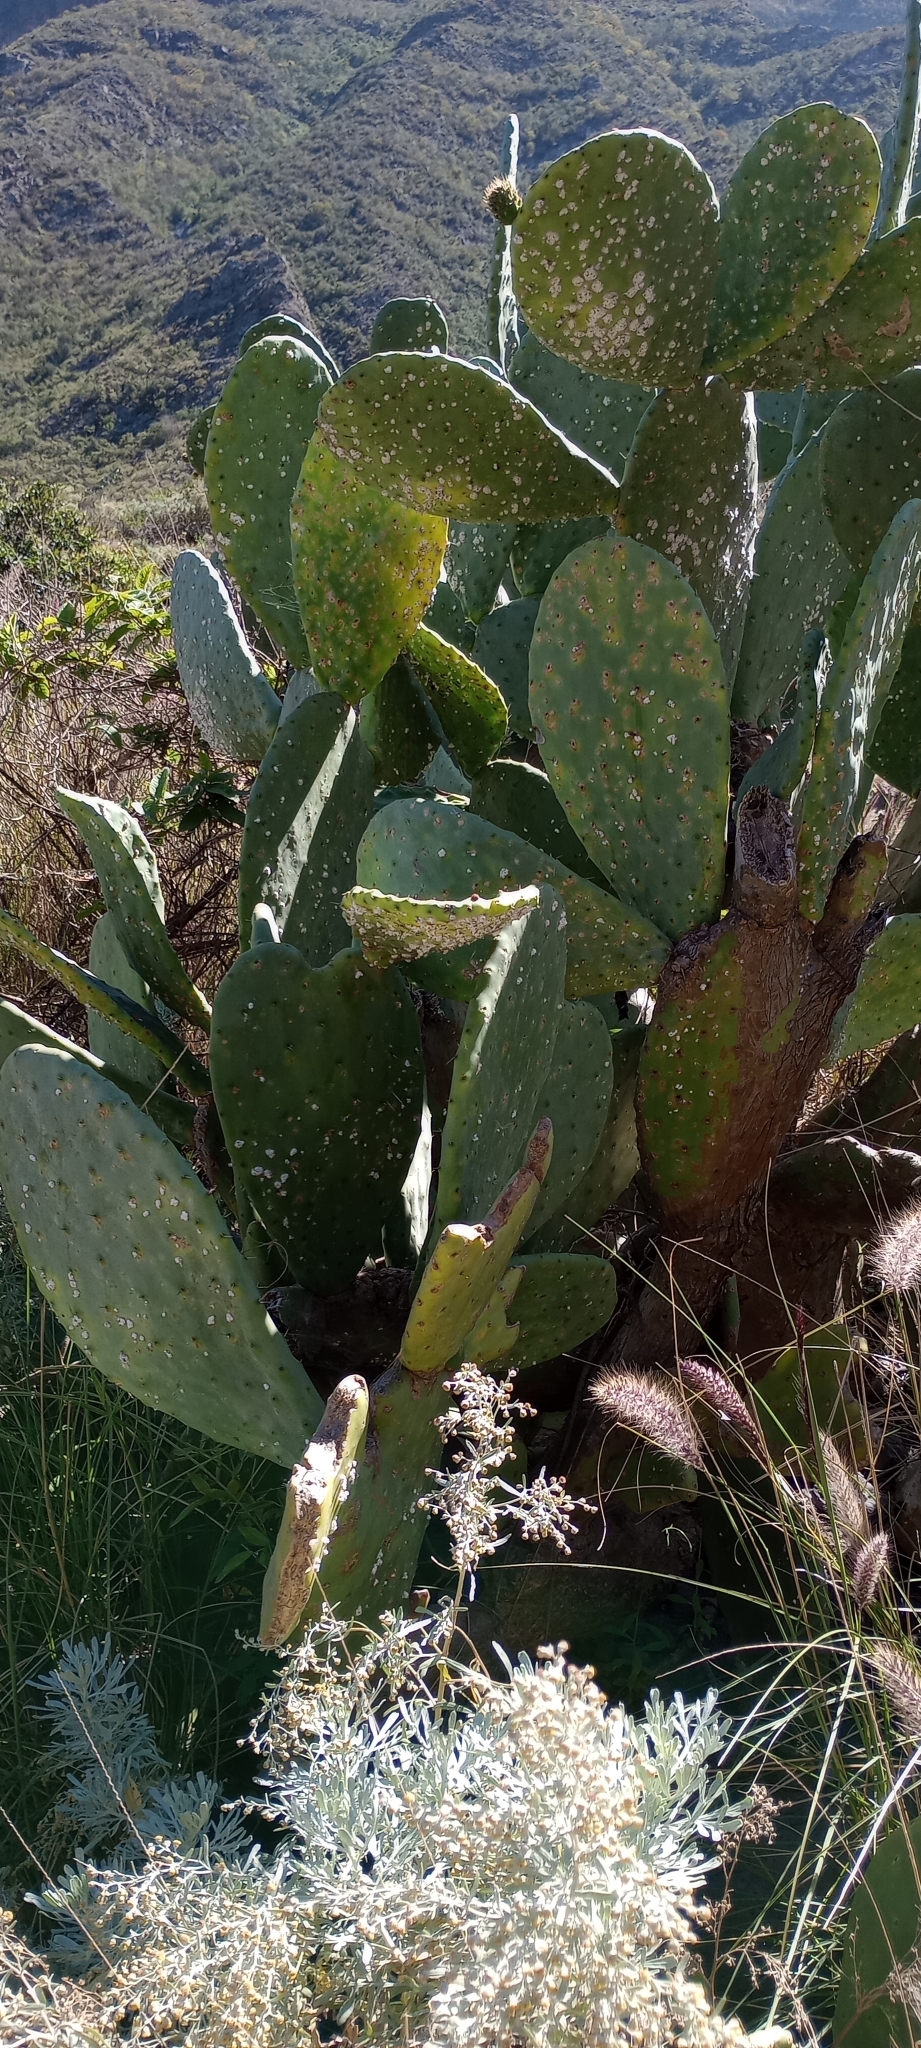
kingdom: Plantae
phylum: Tracheophyta
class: Magnoliopsida
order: Caryophyllales
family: Cactaceae
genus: Opuntia
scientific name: Opuntia ficus-indica
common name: Barbary fig
